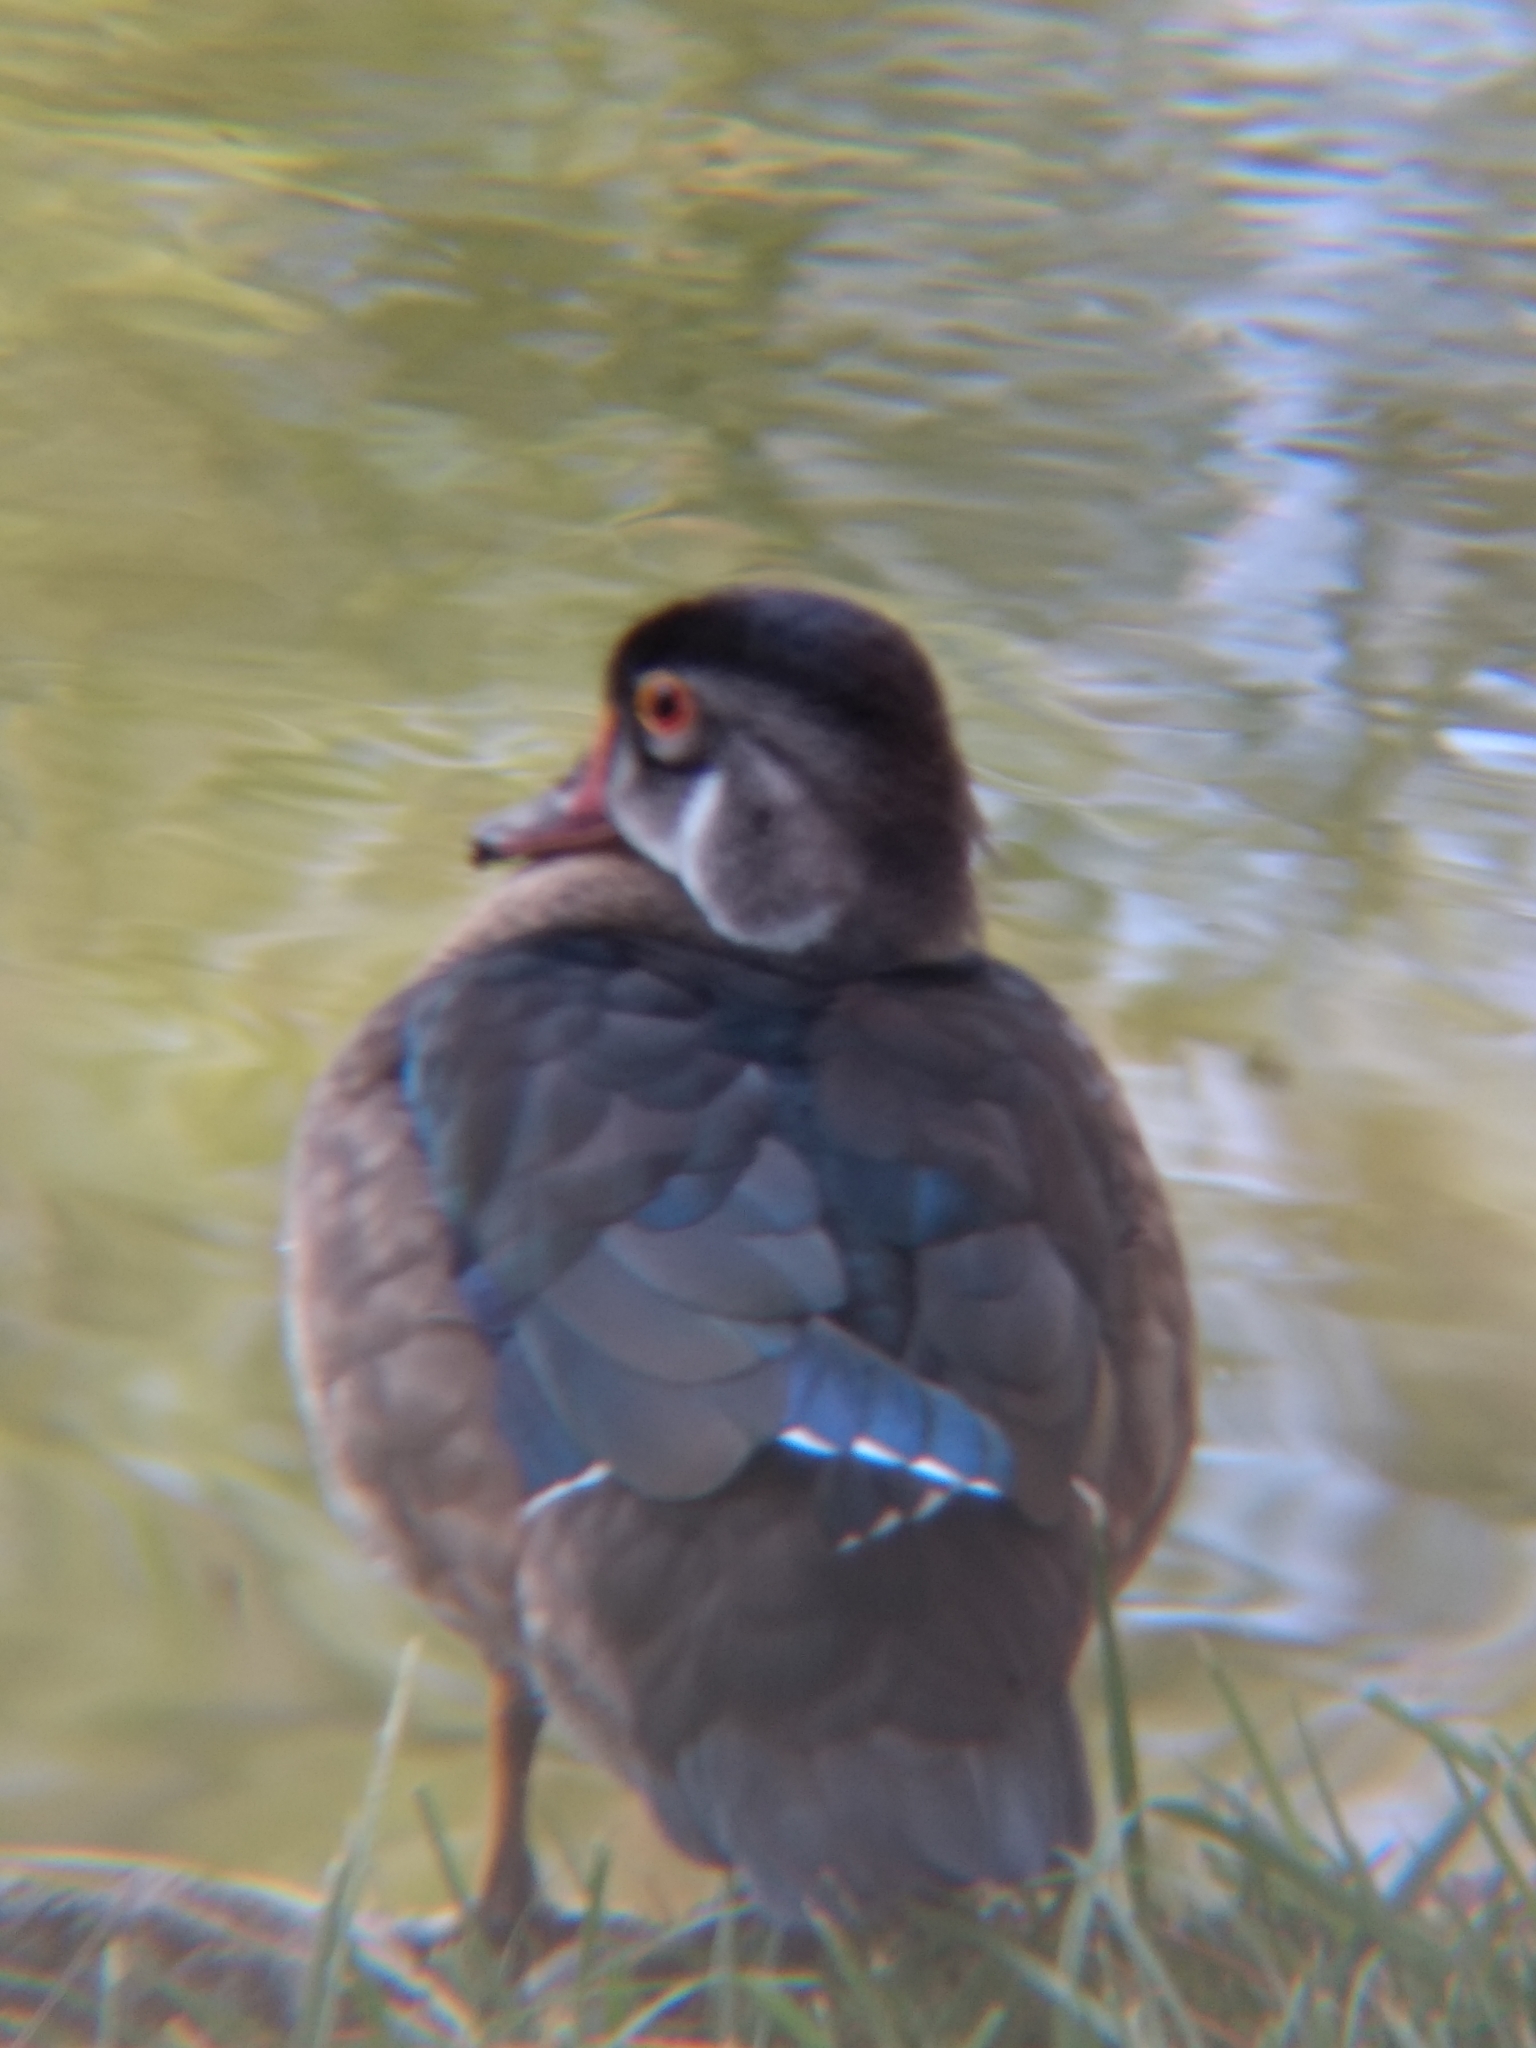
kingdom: Animalia
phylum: Chordata
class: Aves
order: Anseriformes
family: Anatidae
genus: Aix
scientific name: Aix sponsa
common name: Wood duck
